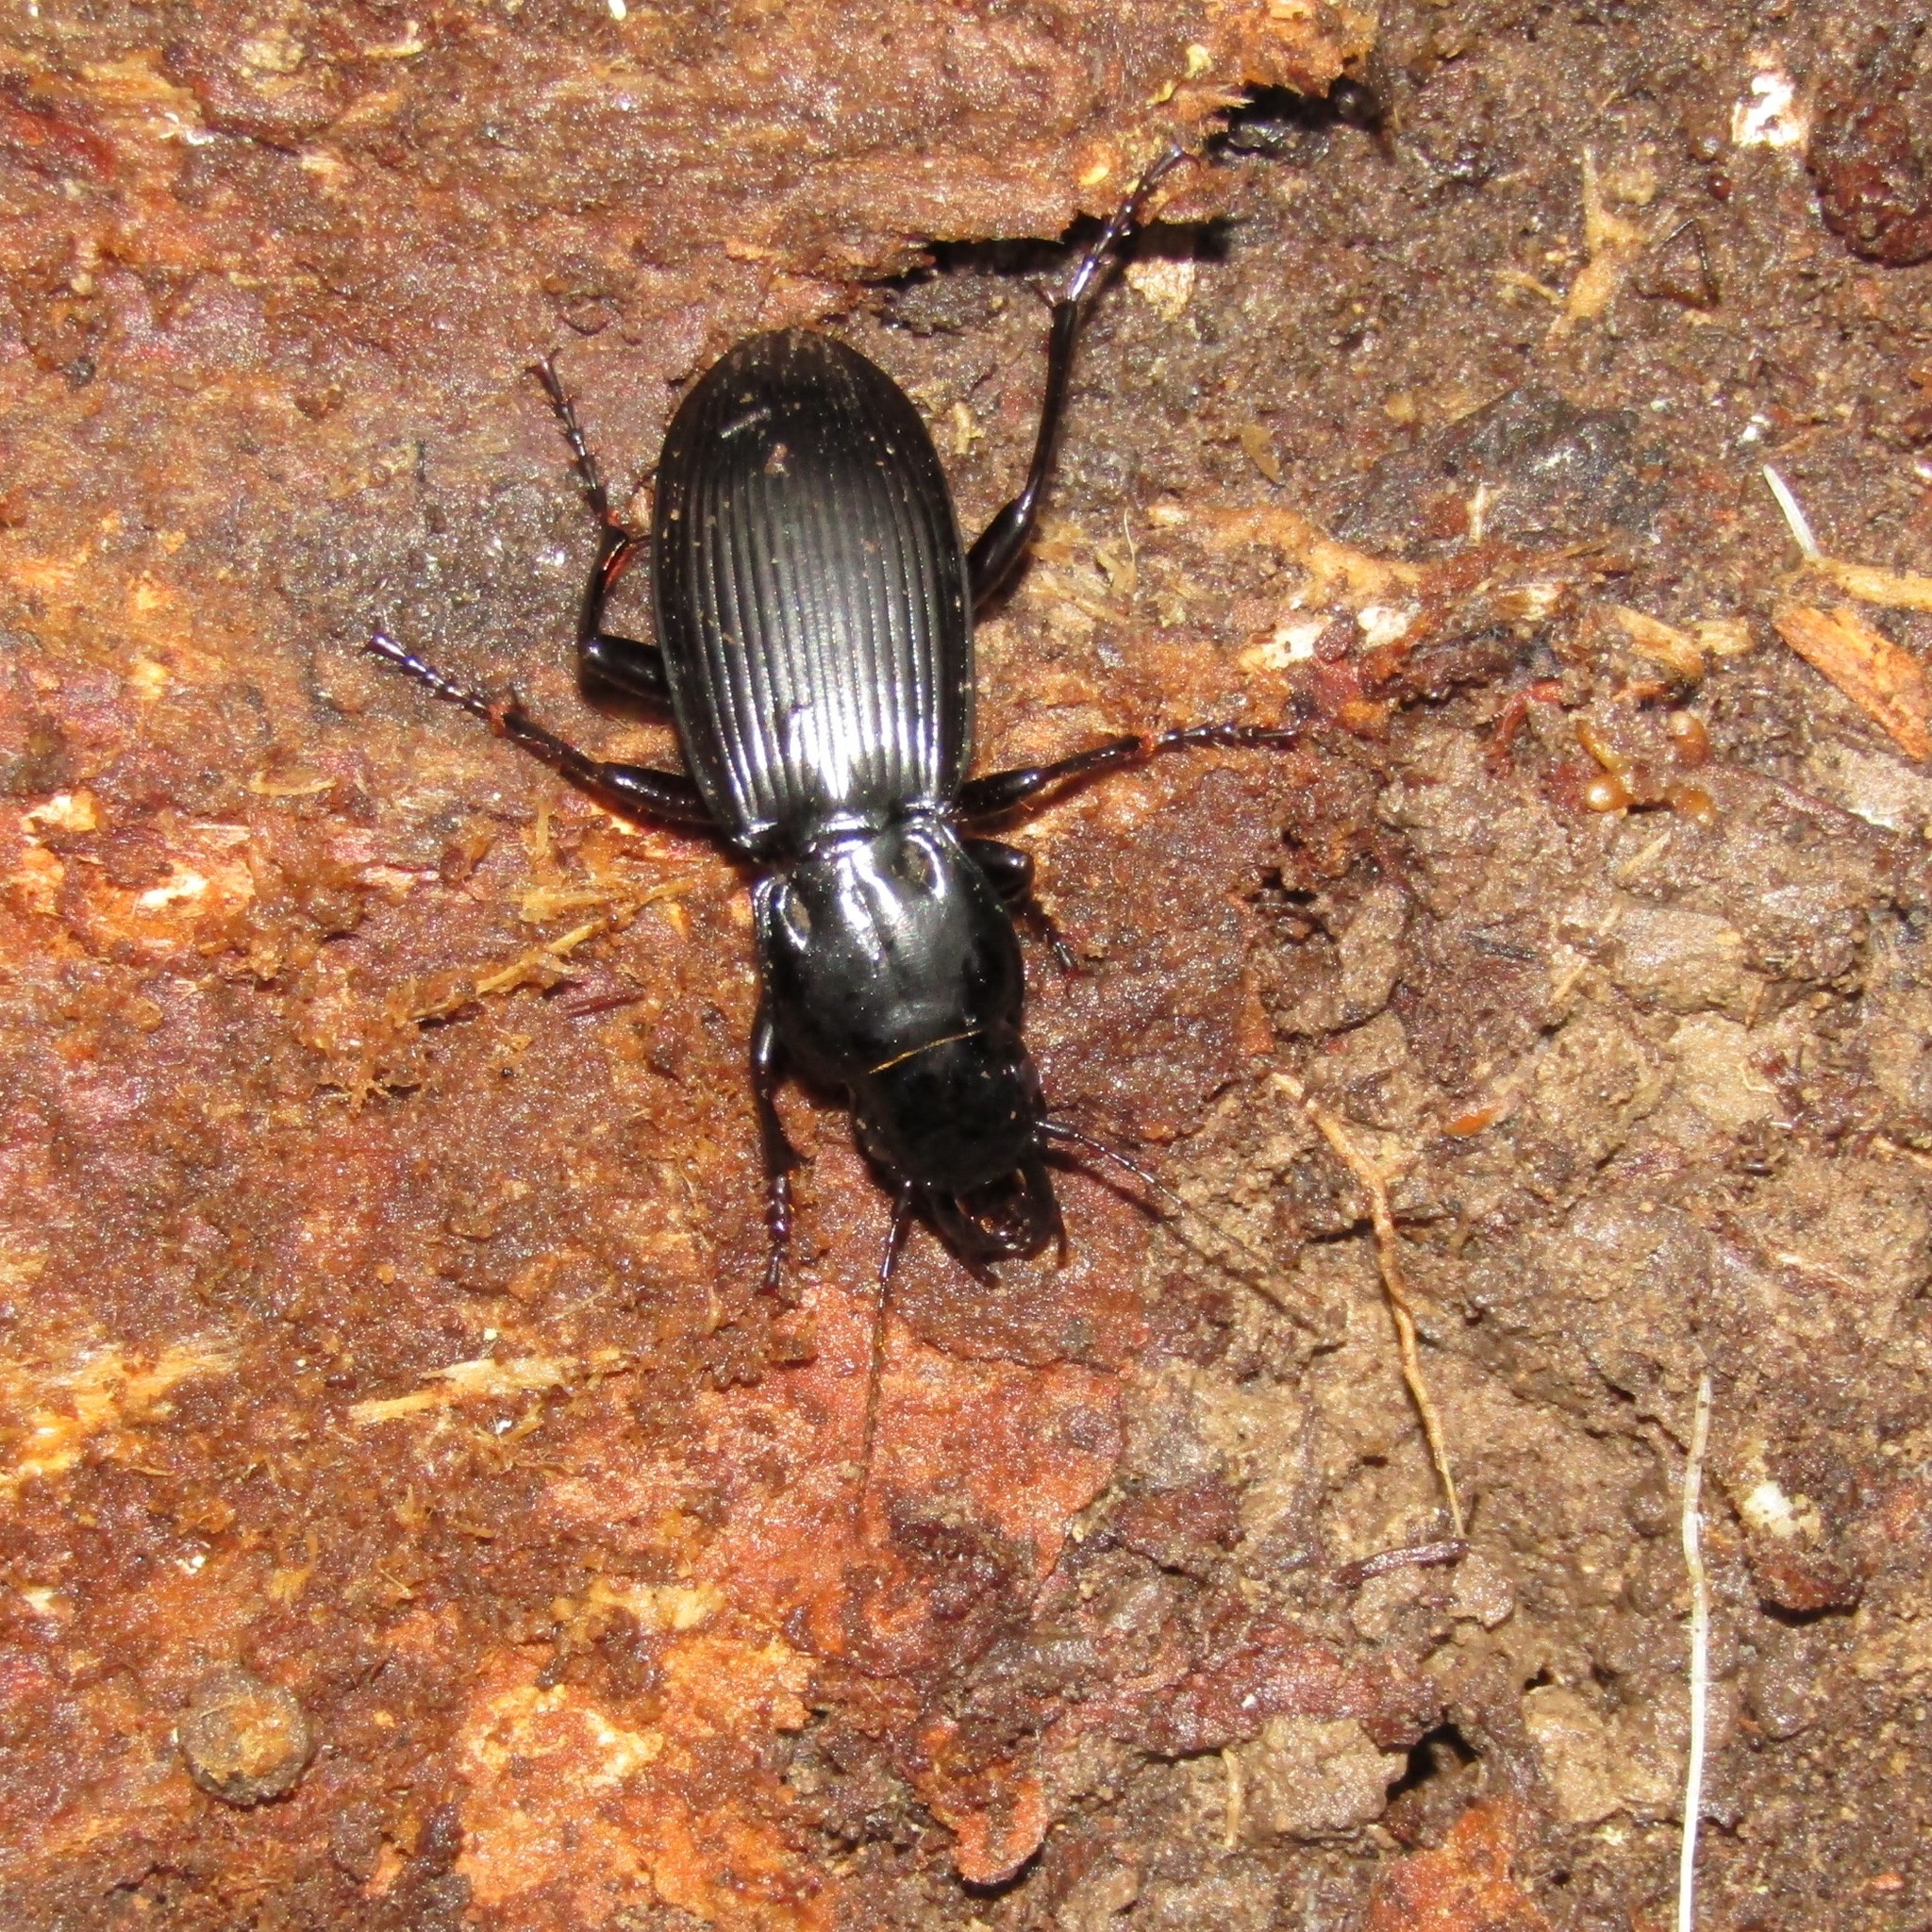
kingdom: Animalia
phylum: Arthropoda
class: Insecta
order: Coleoptera
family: Carabidae
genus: Plocamostethus
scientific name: Plocamostethus planiusculus
